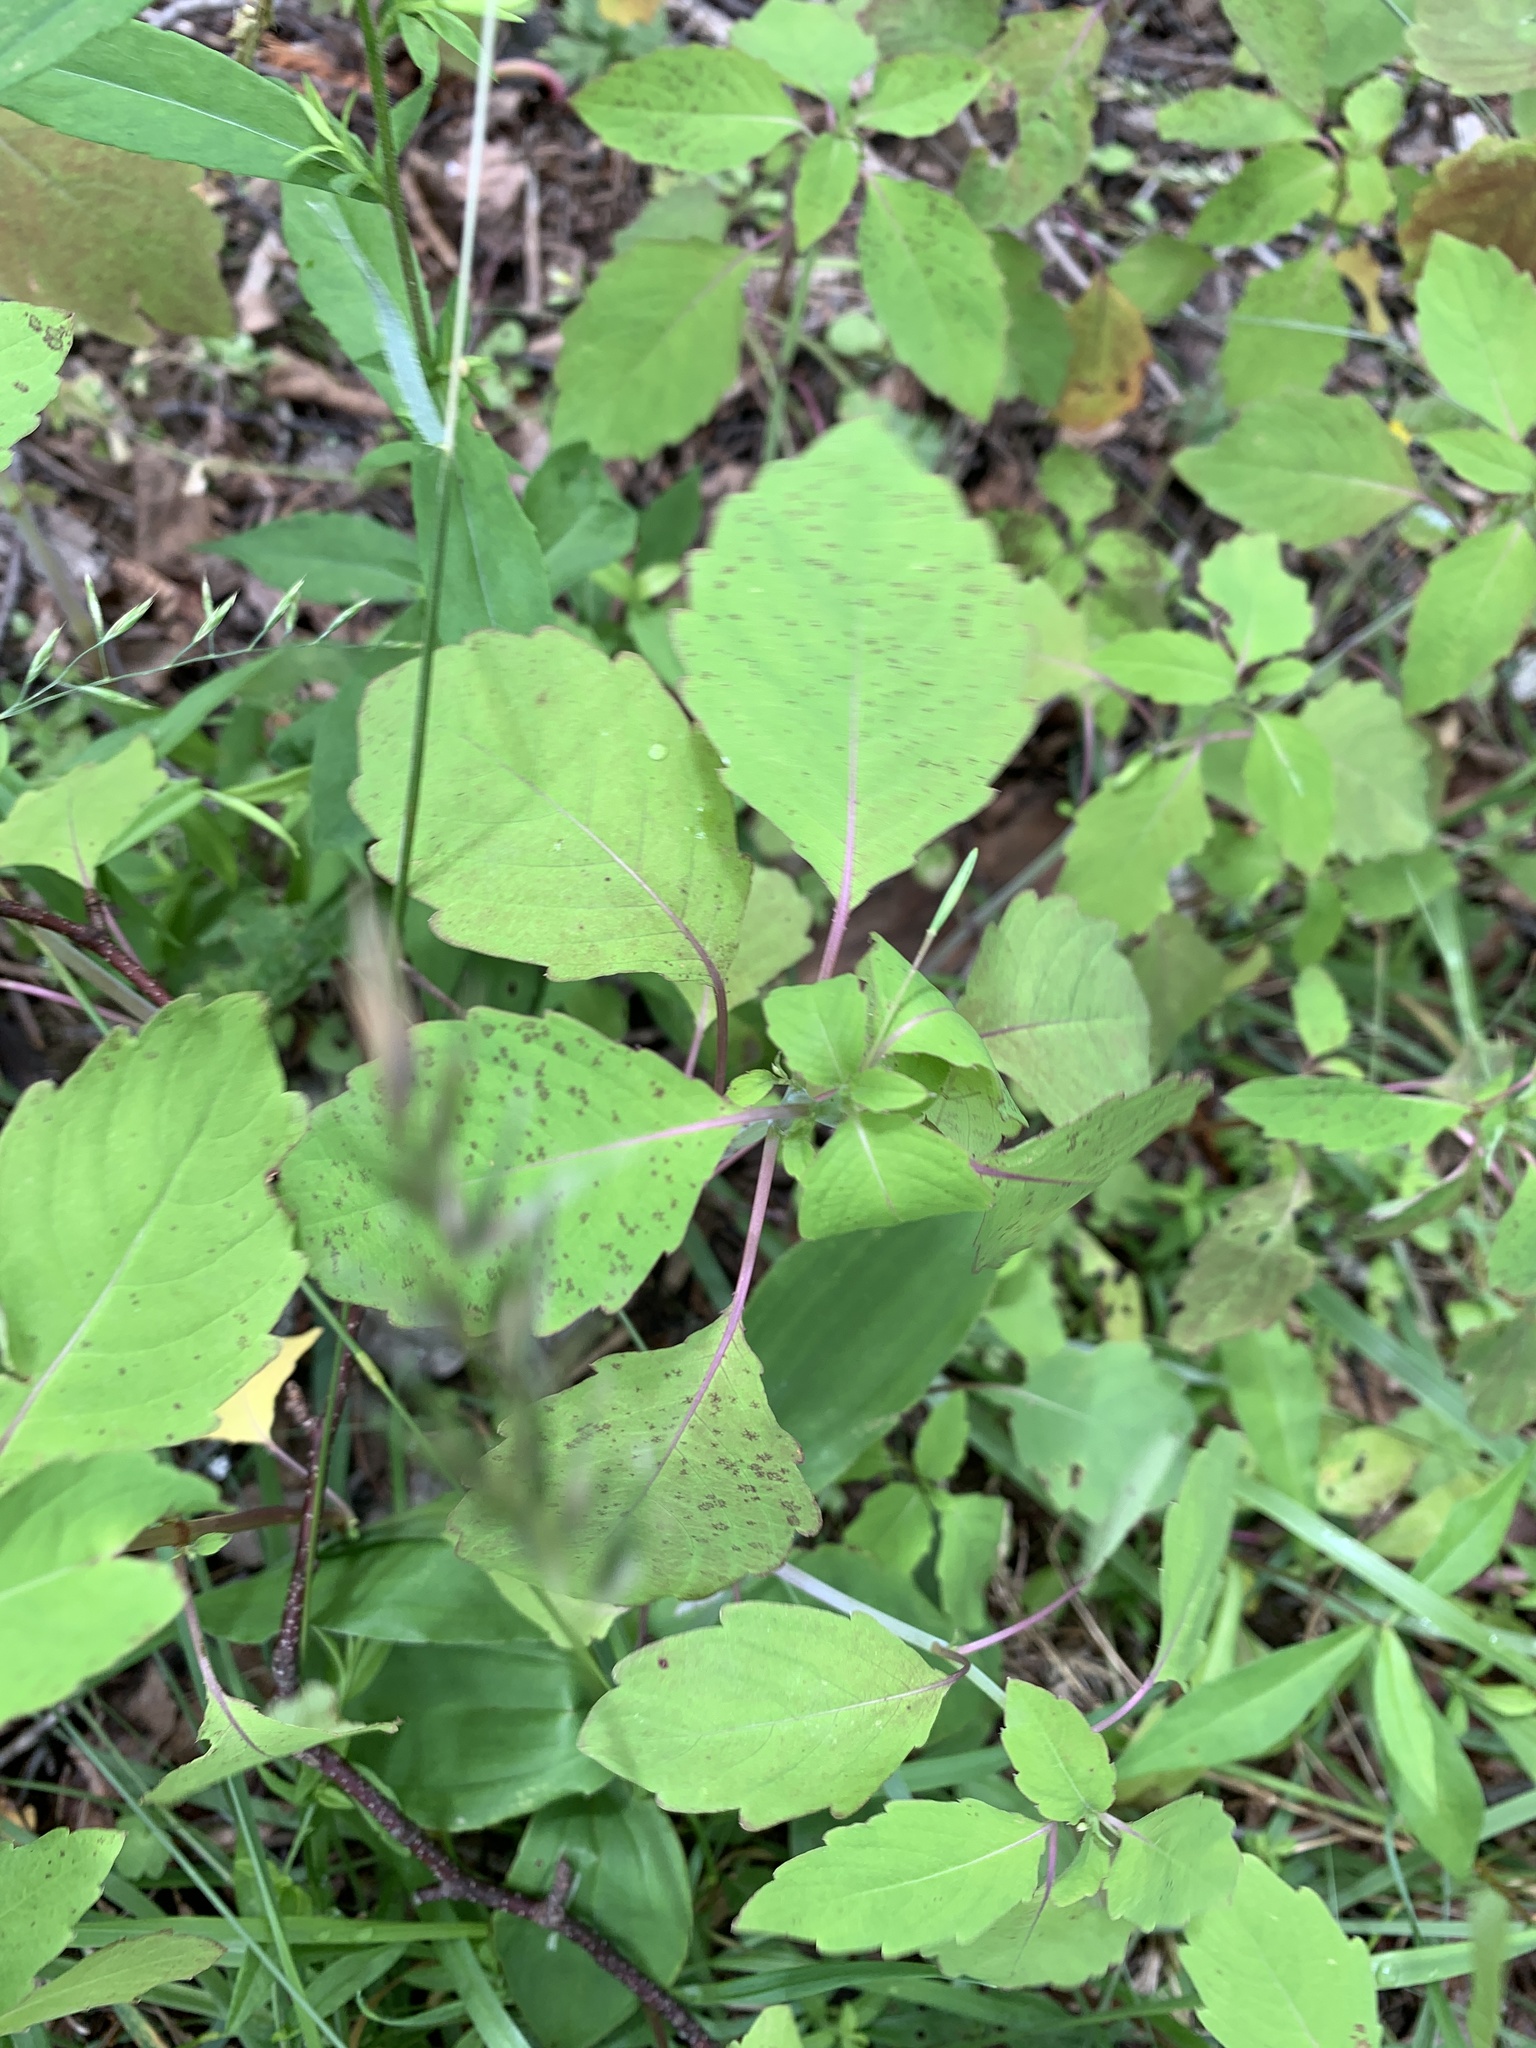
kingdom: Plantae
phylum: Tracheophyta
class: Magnoliopsida
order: Ericales
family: Balsaminaceae
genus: Impatiens
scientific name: Impatiens capensis
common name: Orange balsam
